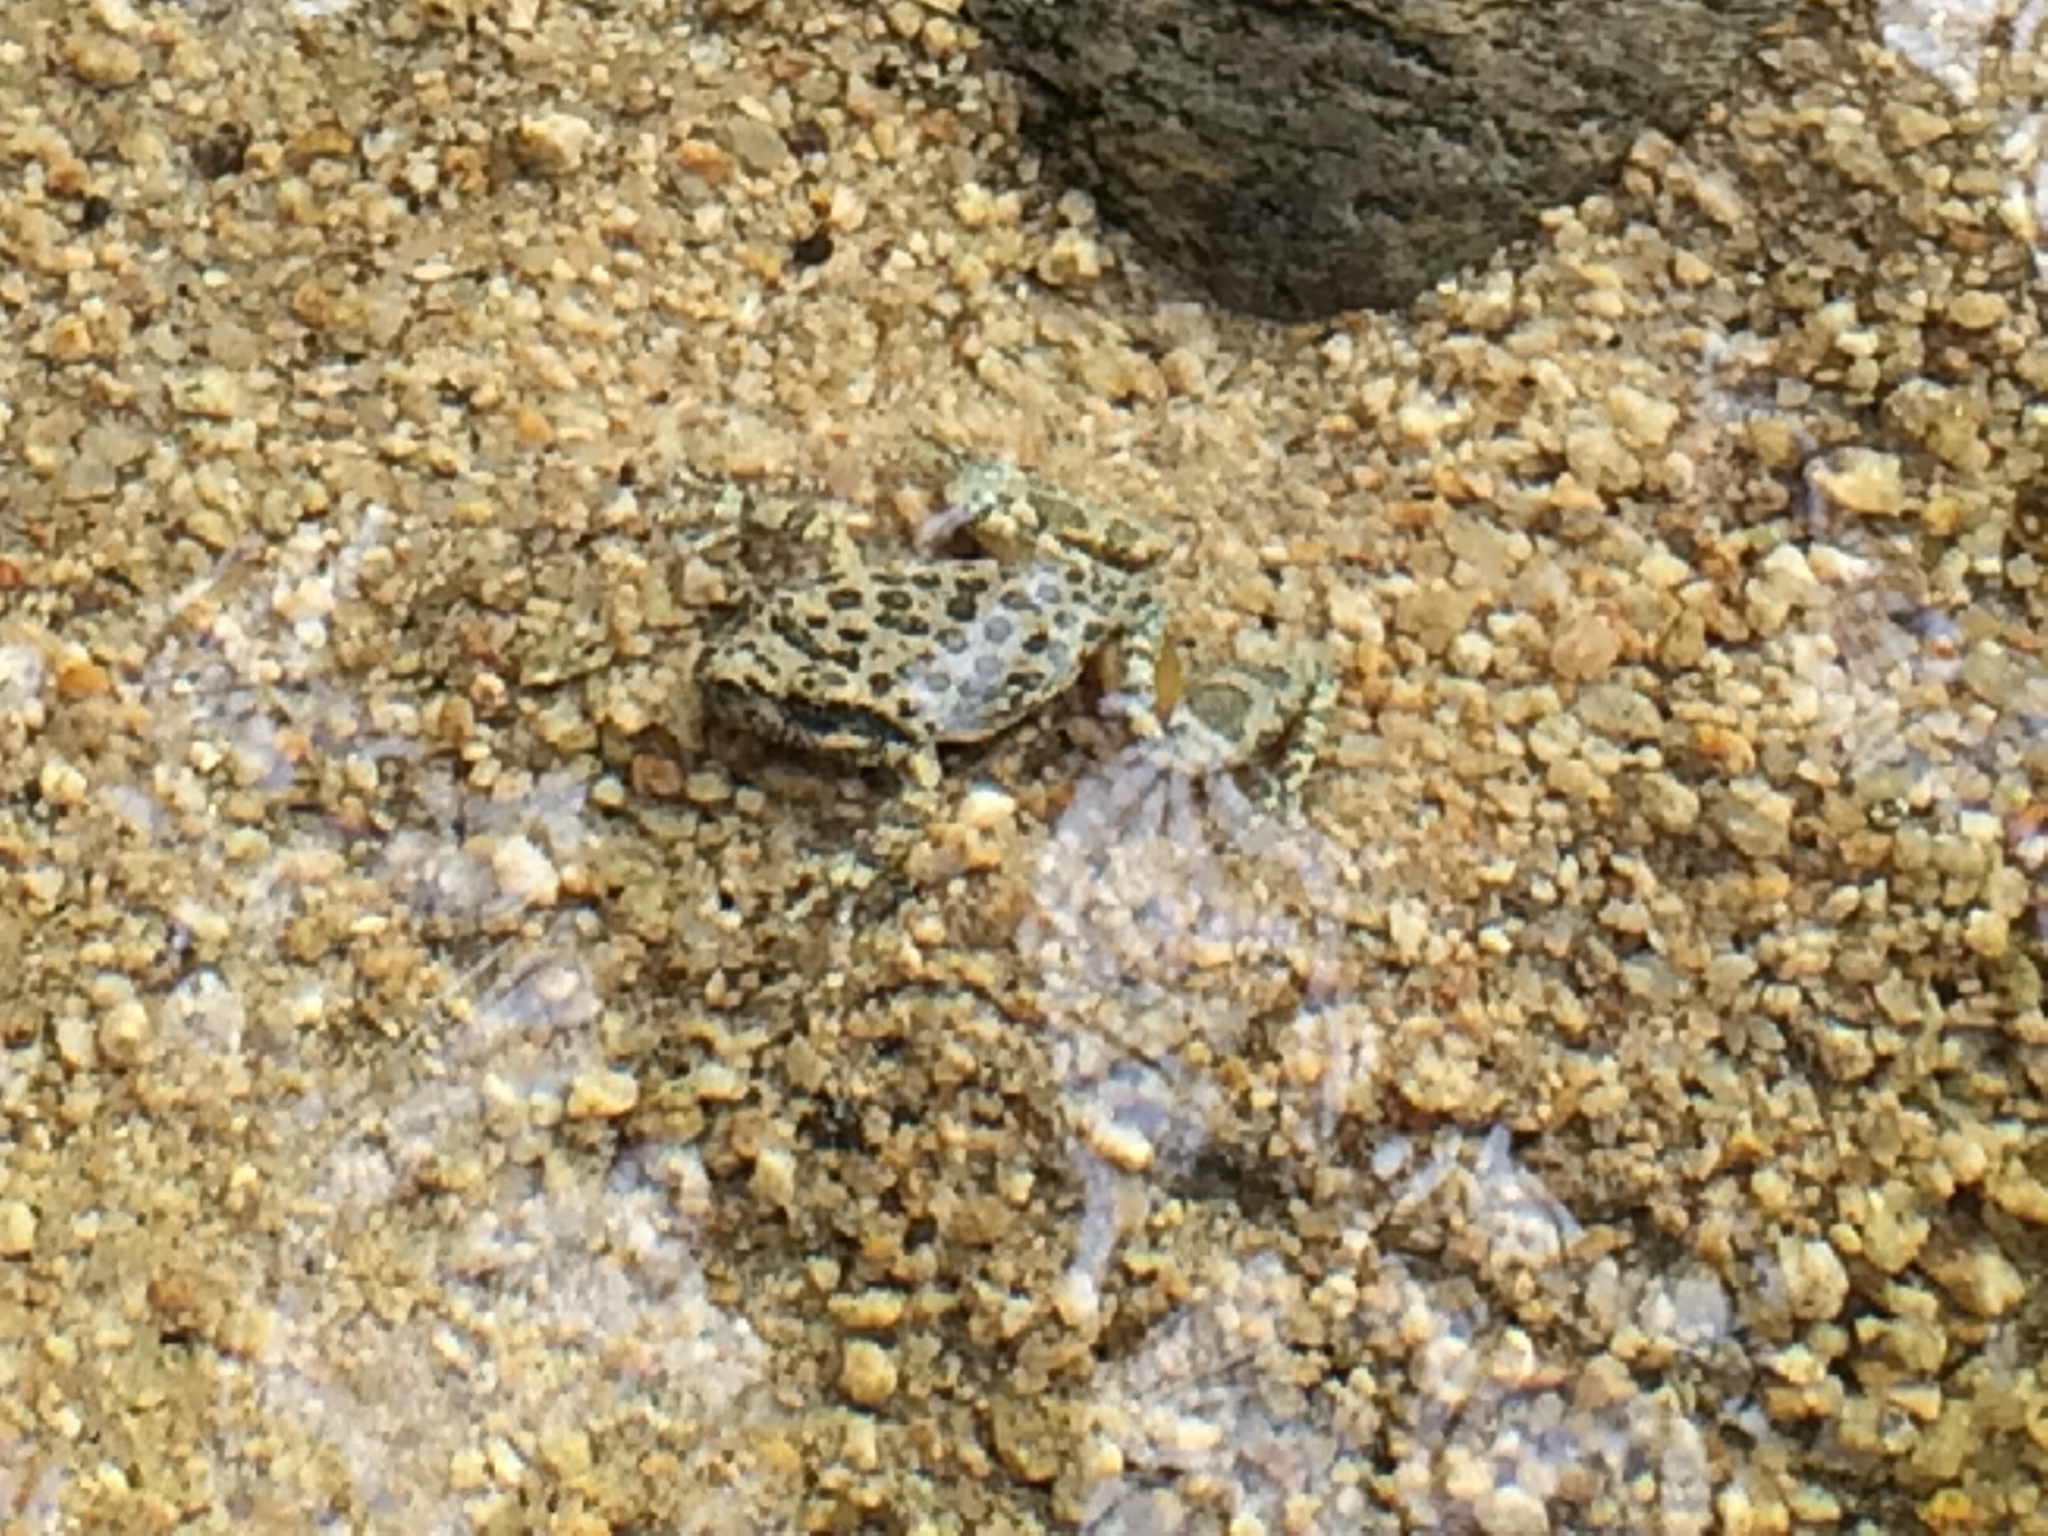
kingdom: Animalia
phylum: Chordata
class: Amphibia
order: Anura
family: Hylidae
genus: Pseudacris
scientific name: Pseudacris cadaverina
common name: California chorus frog
